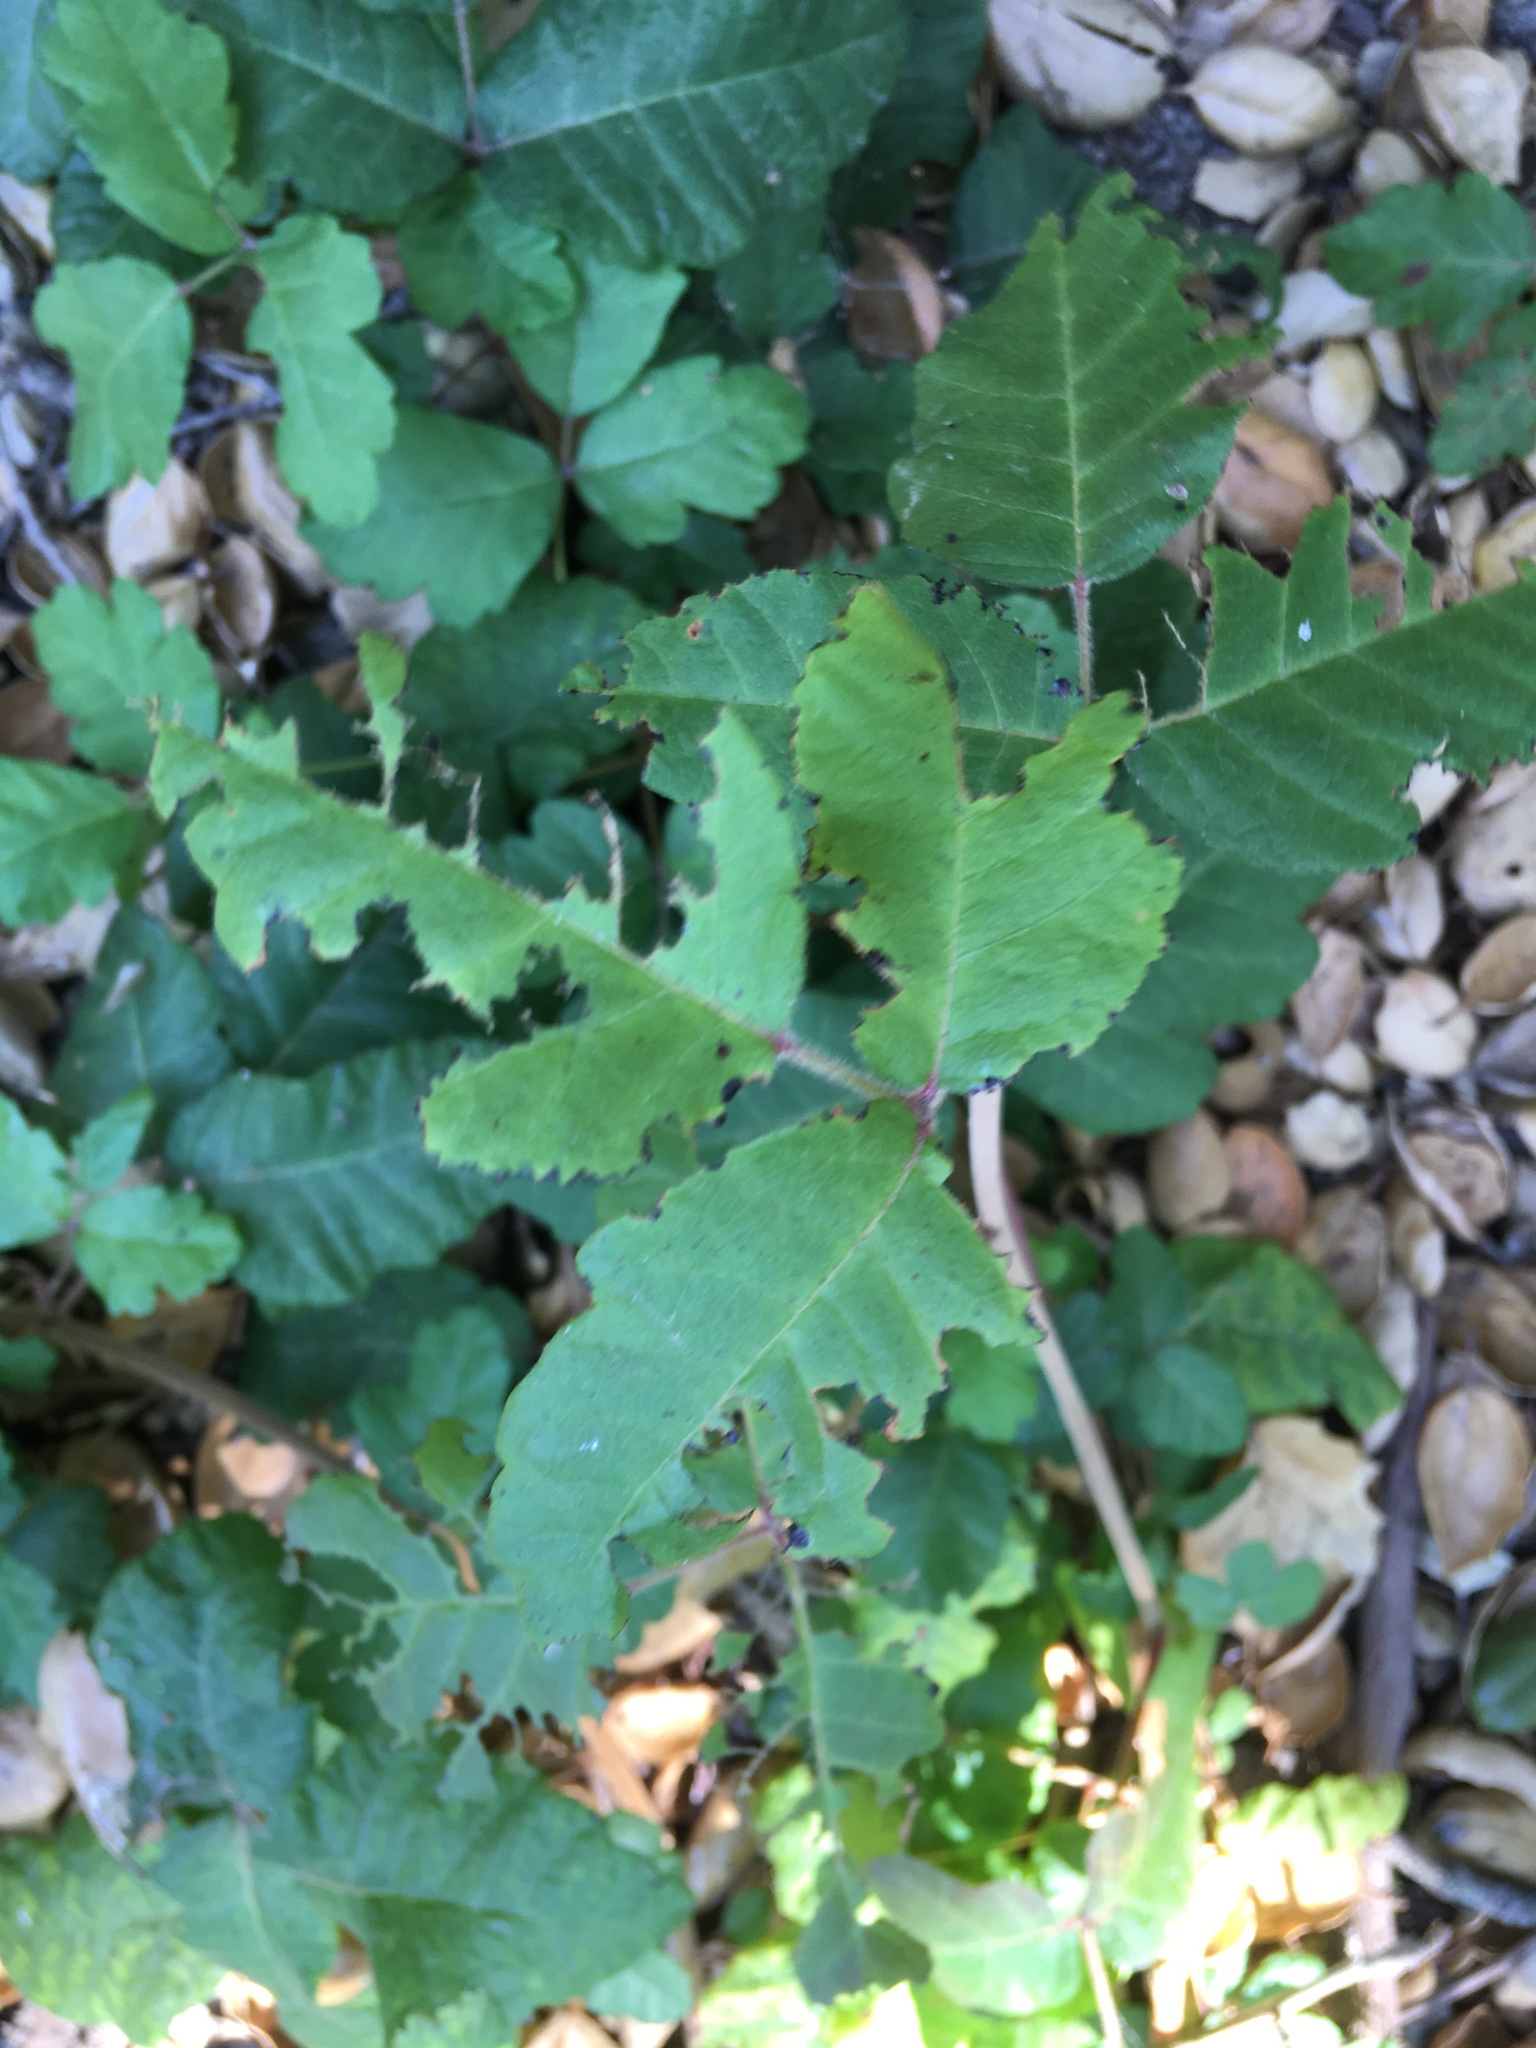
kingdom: Plantae
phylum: Tracheophyta
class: Magnoliopsida
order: Sapindales
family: Anacardiaceae
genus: Toxicodendron
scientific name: Toxicodendron diversilobum
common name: Pacific poison-oak
